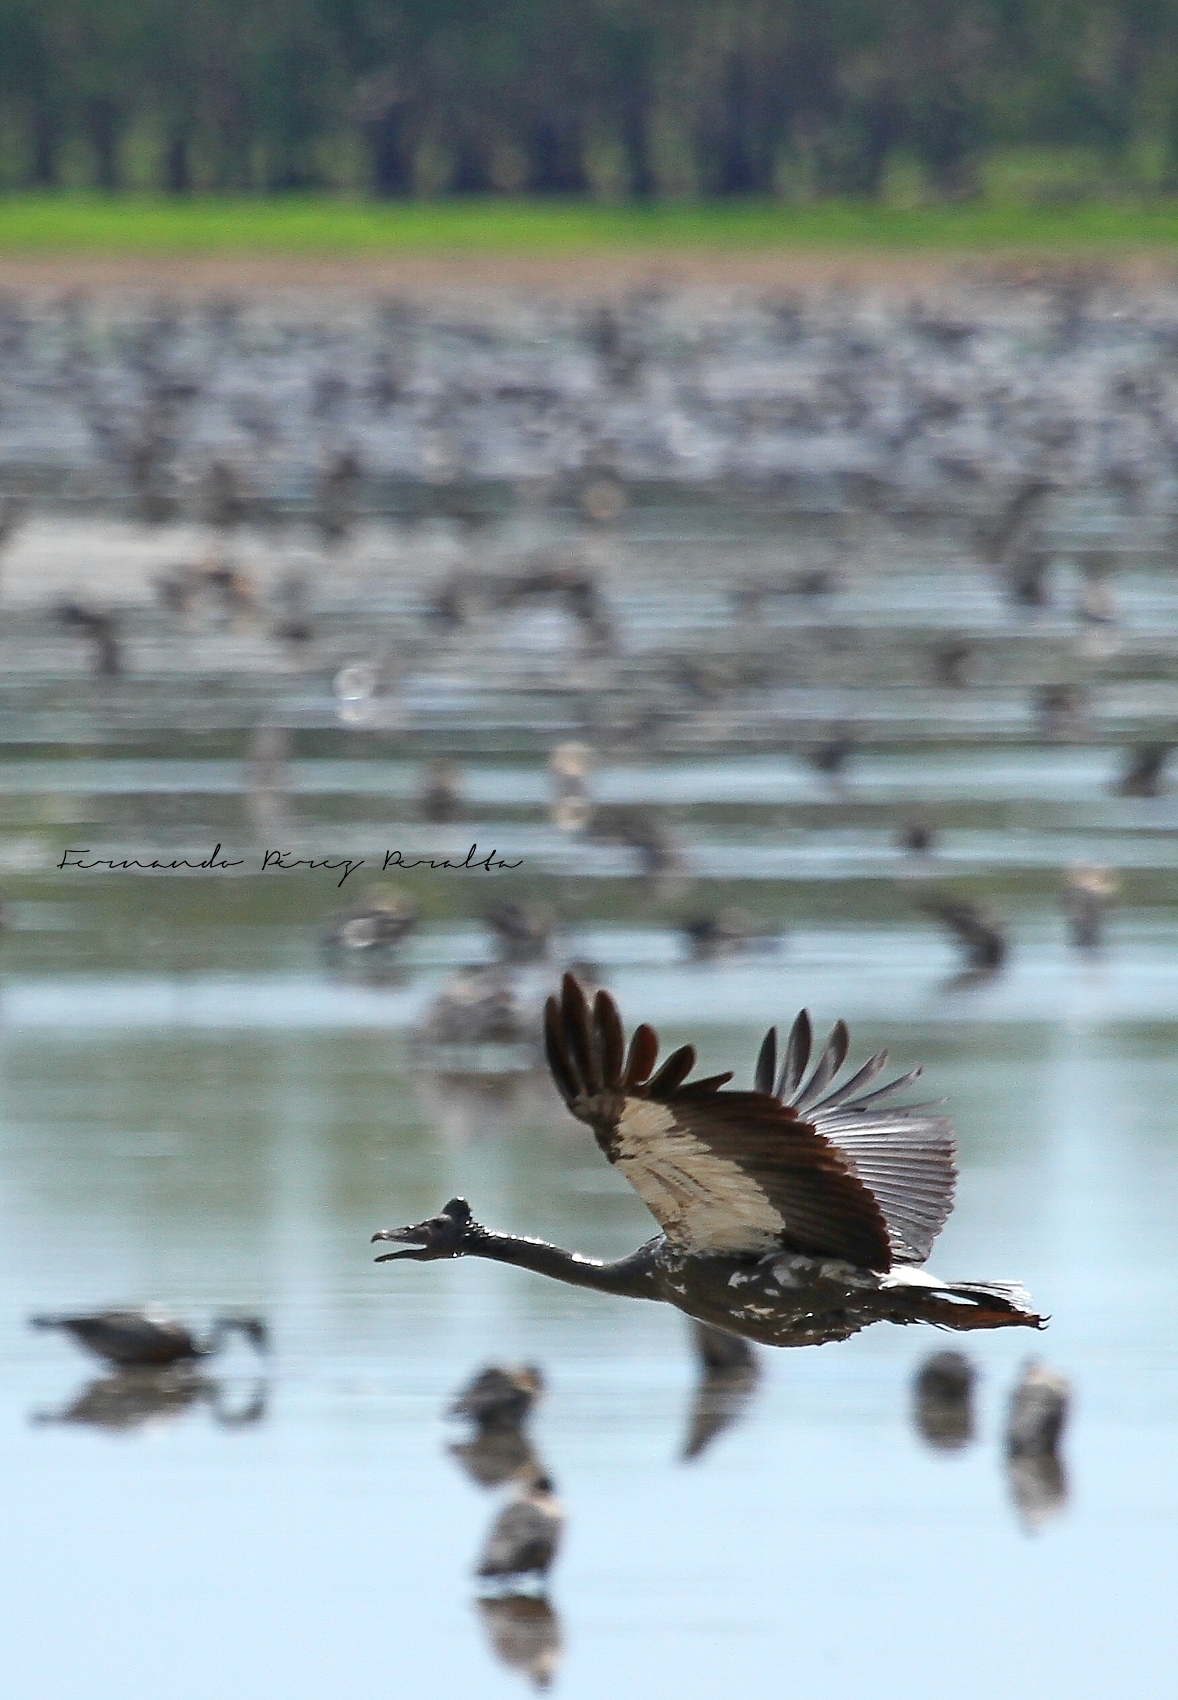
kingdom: Animalia
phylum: Chordata
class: Aves
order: Anseriformes
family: Anseranatidae
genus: Anseranas
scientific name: Anseranas semipalmata
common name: Magpie goose
